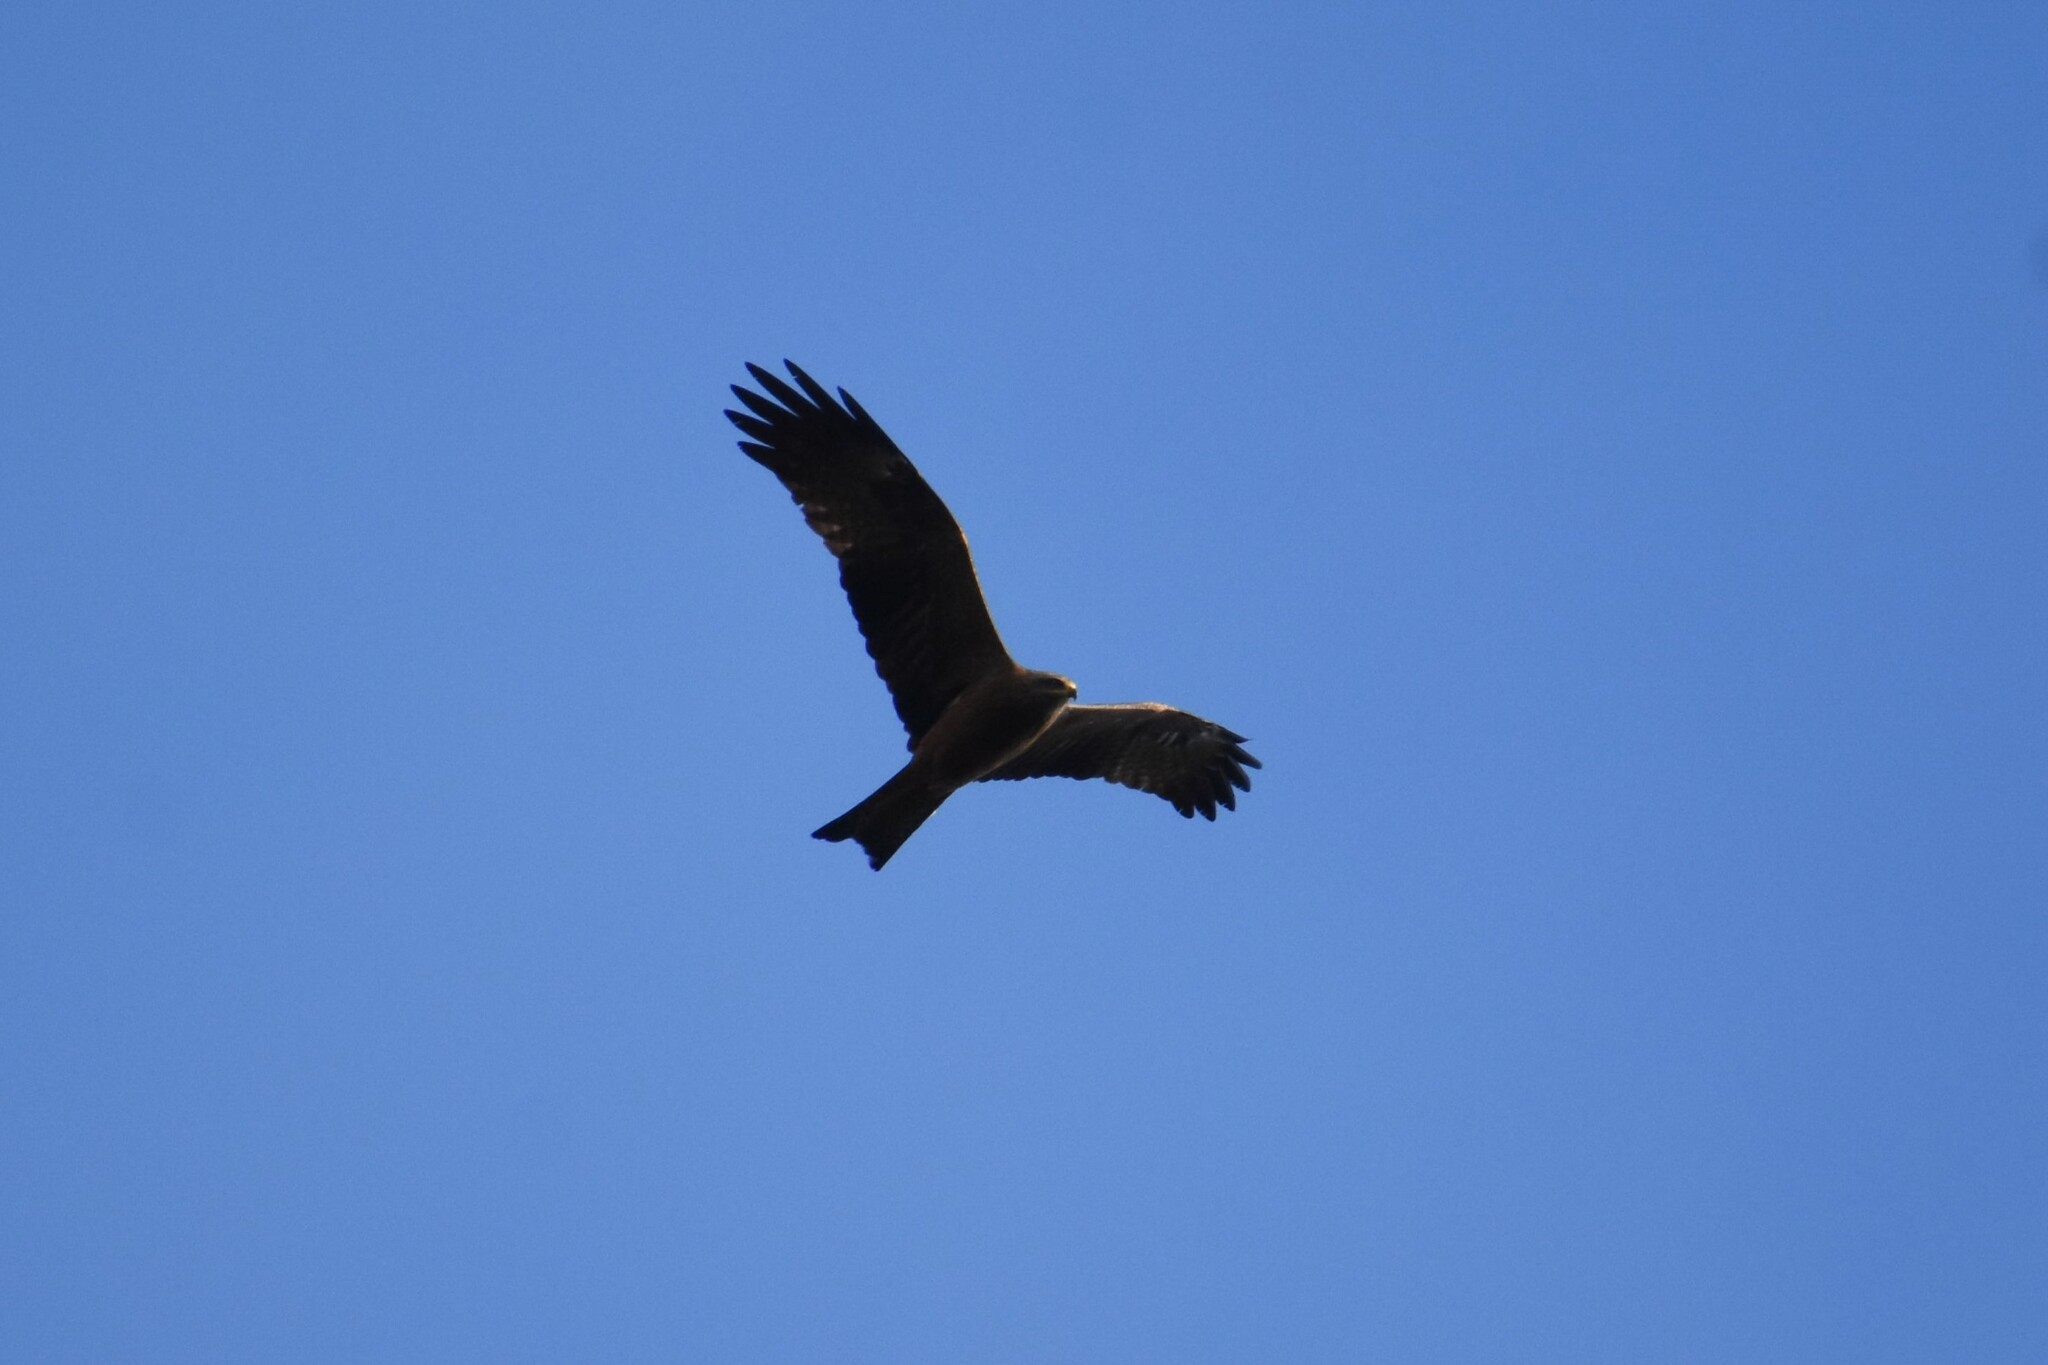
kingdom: Animalia
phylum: Chordata
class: Aves
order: Accipitriformes
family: Accipitridae
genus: Milvus
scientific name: Milvus migrans
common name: Black kite
